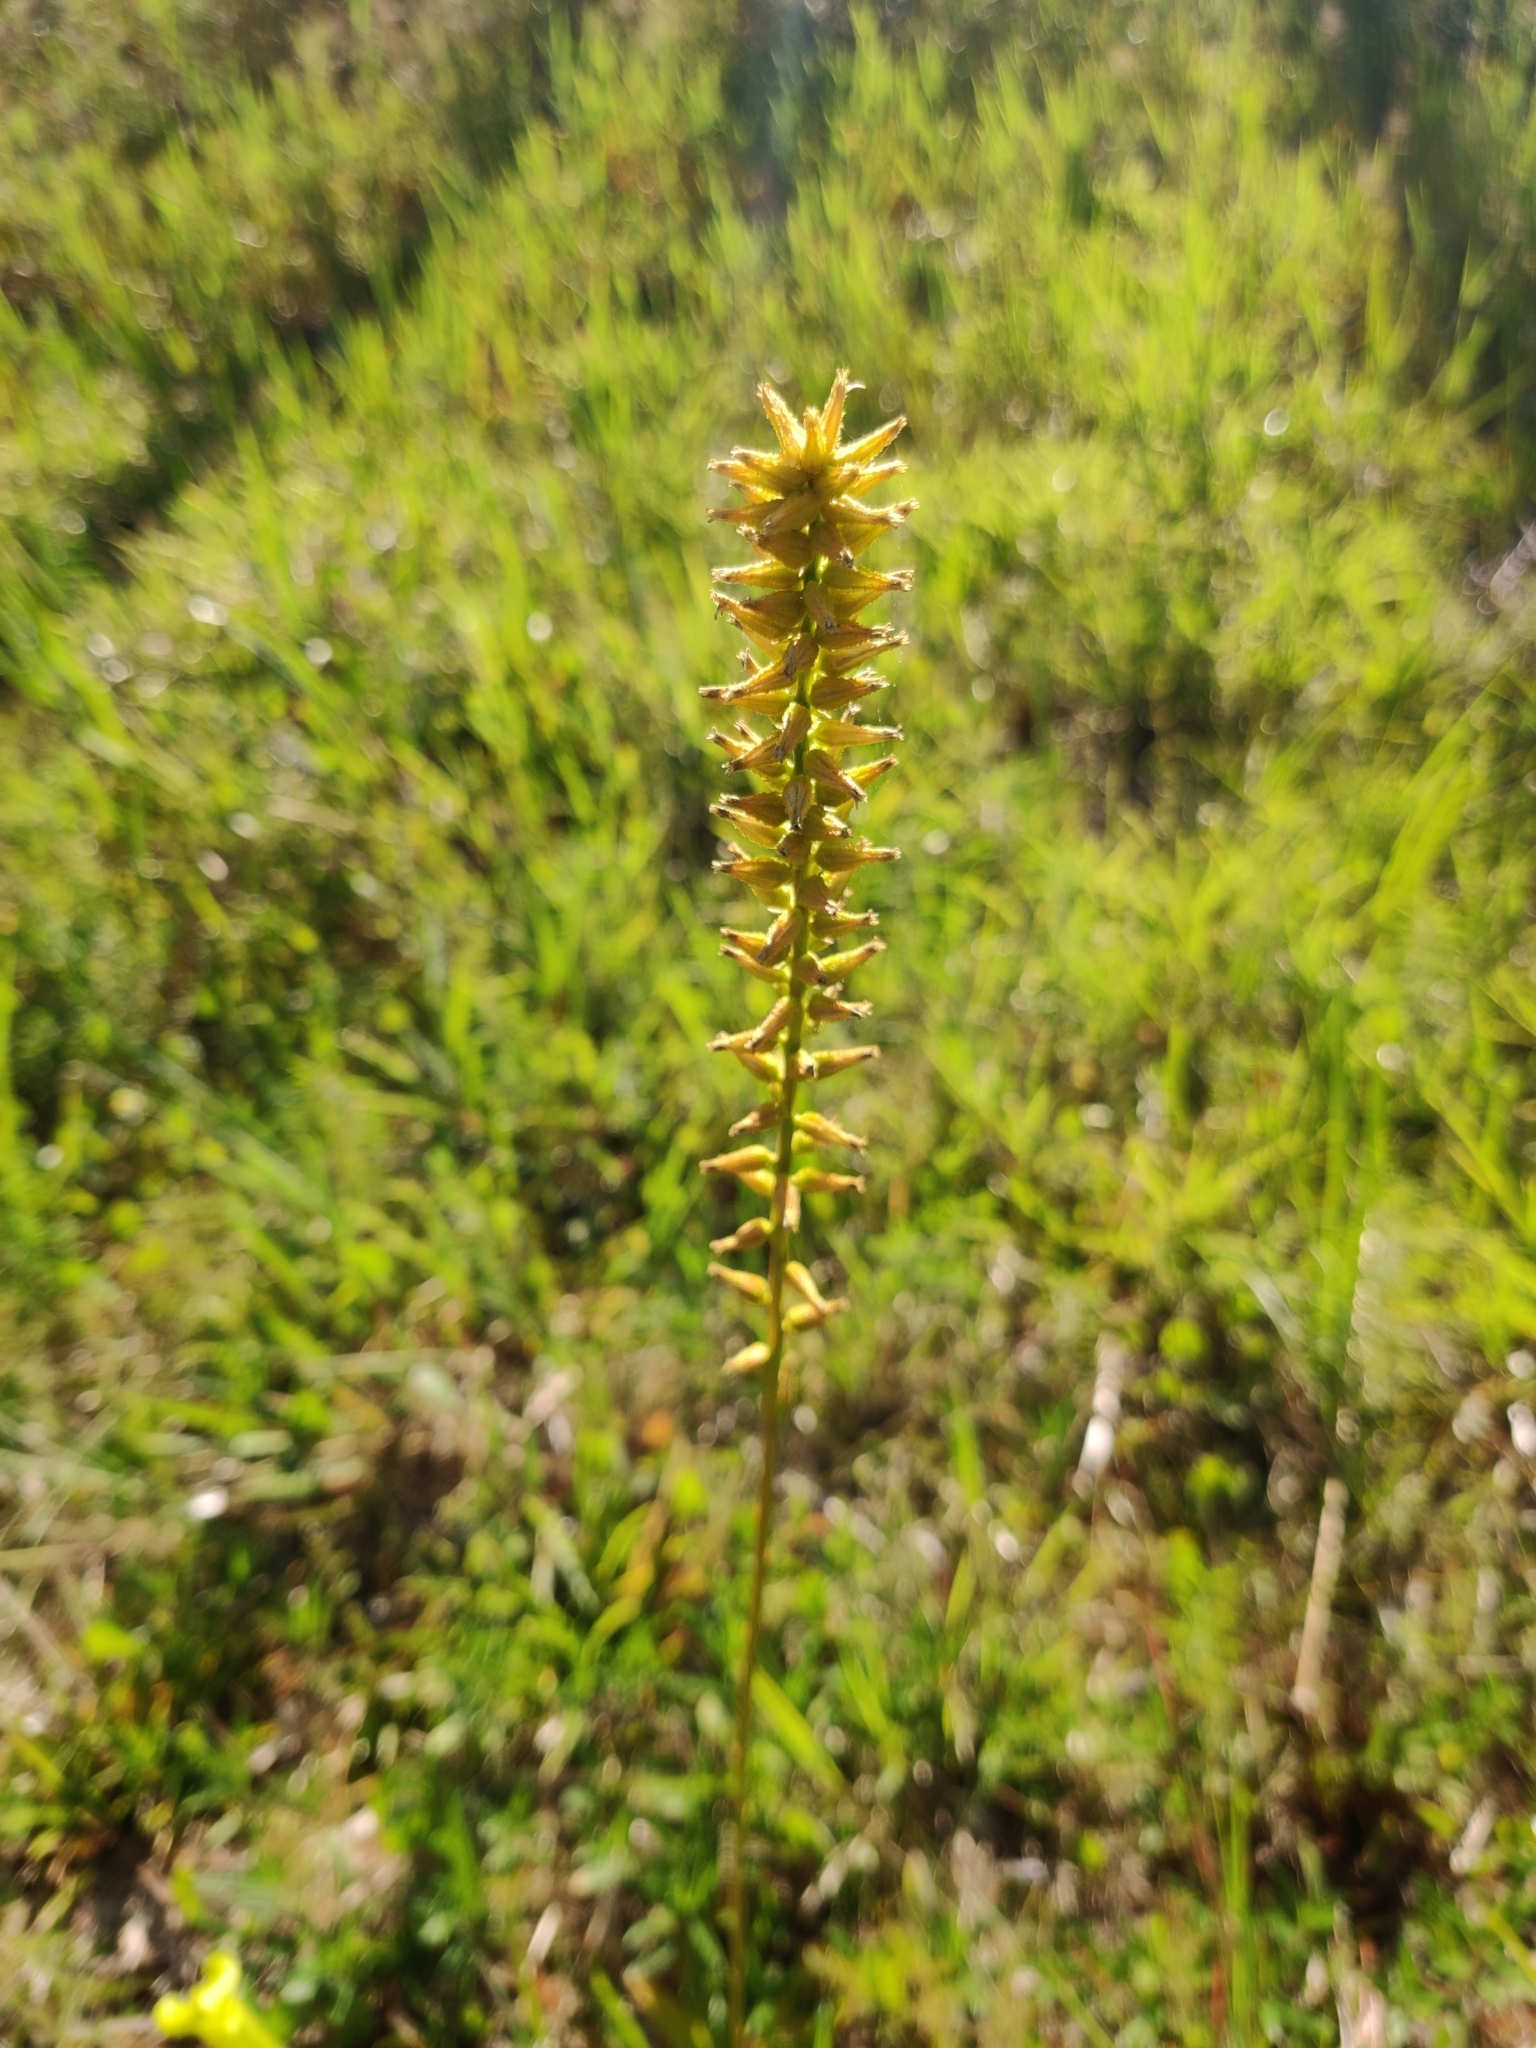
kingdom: Plantae
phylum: Tracheophyta
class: Liliopsida
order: Dioscoreales
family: Nartheciaceae
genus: Aletris
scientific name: Aletris lutea
